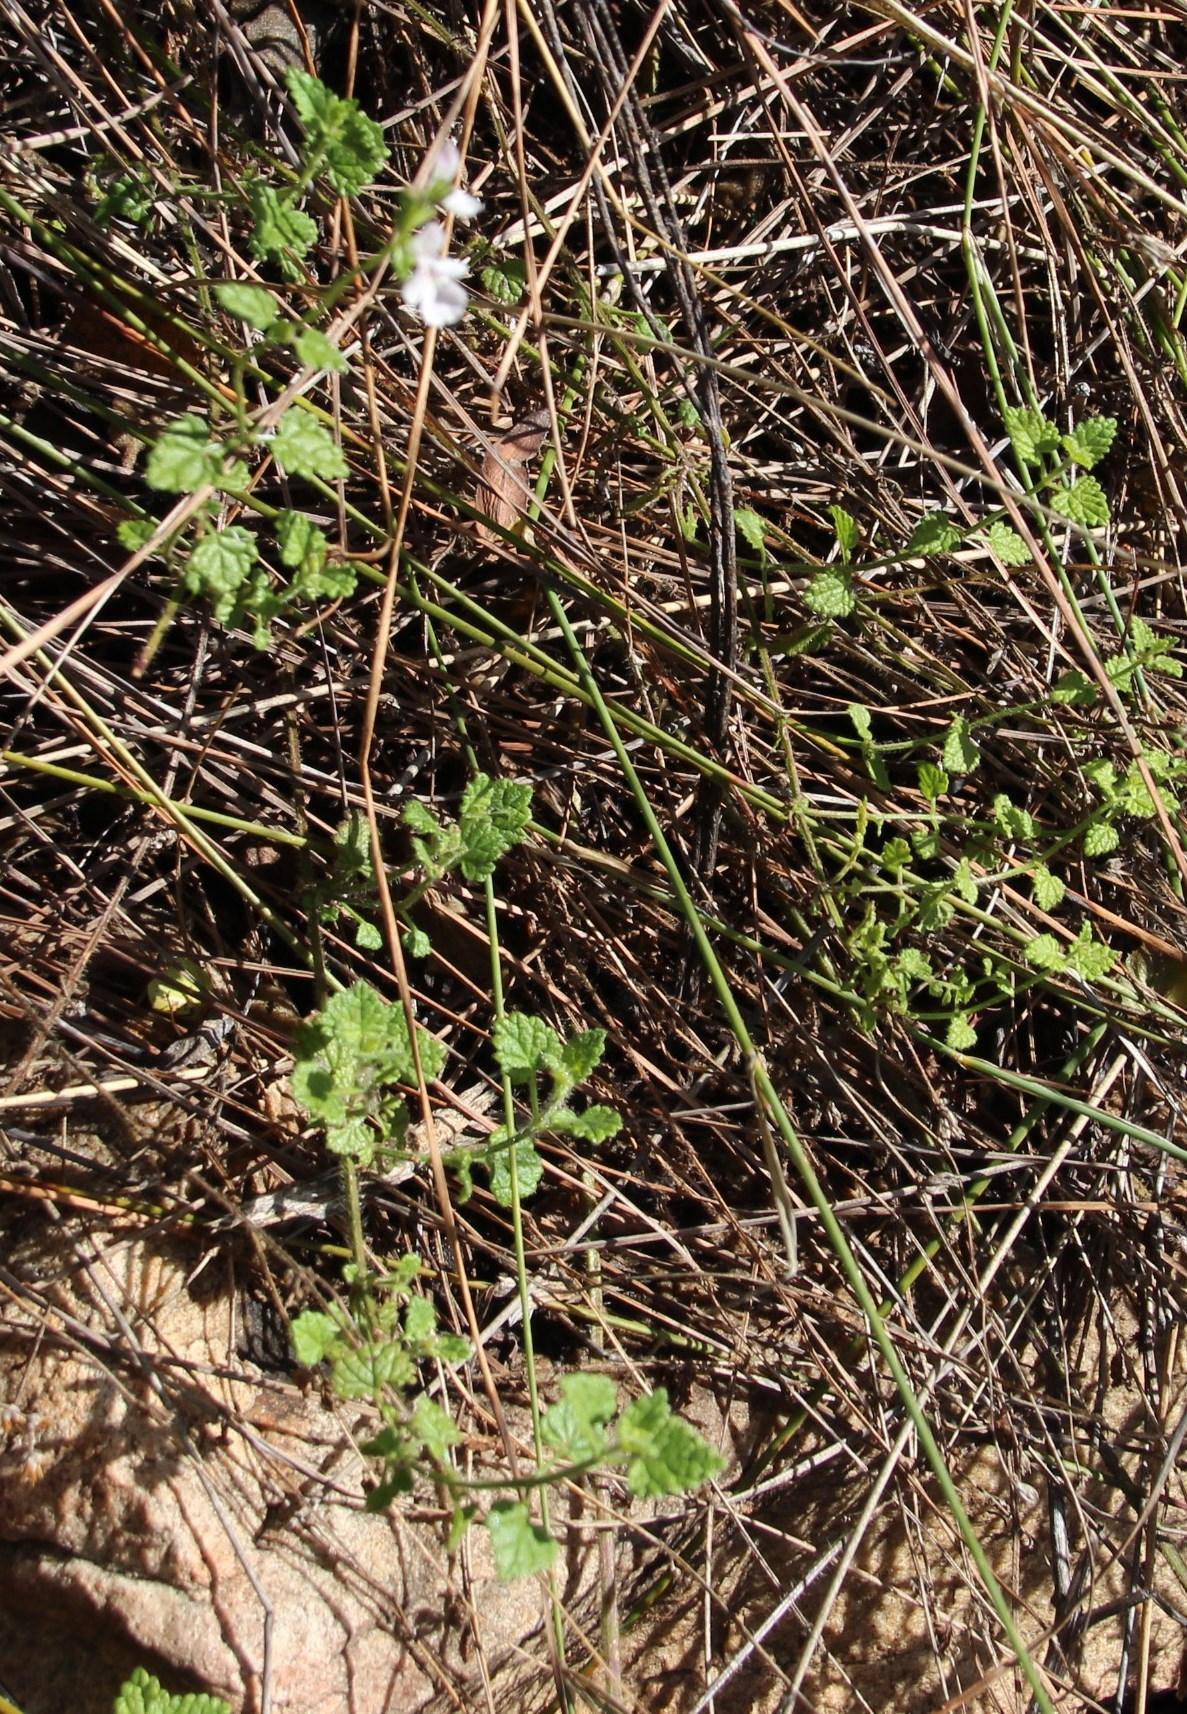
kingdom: Plantae
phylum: Tracheophyta
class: Magnoliopsida
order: Lamiales
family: Lamiaceae
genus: Stachys
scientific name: Stachys aethiopica
